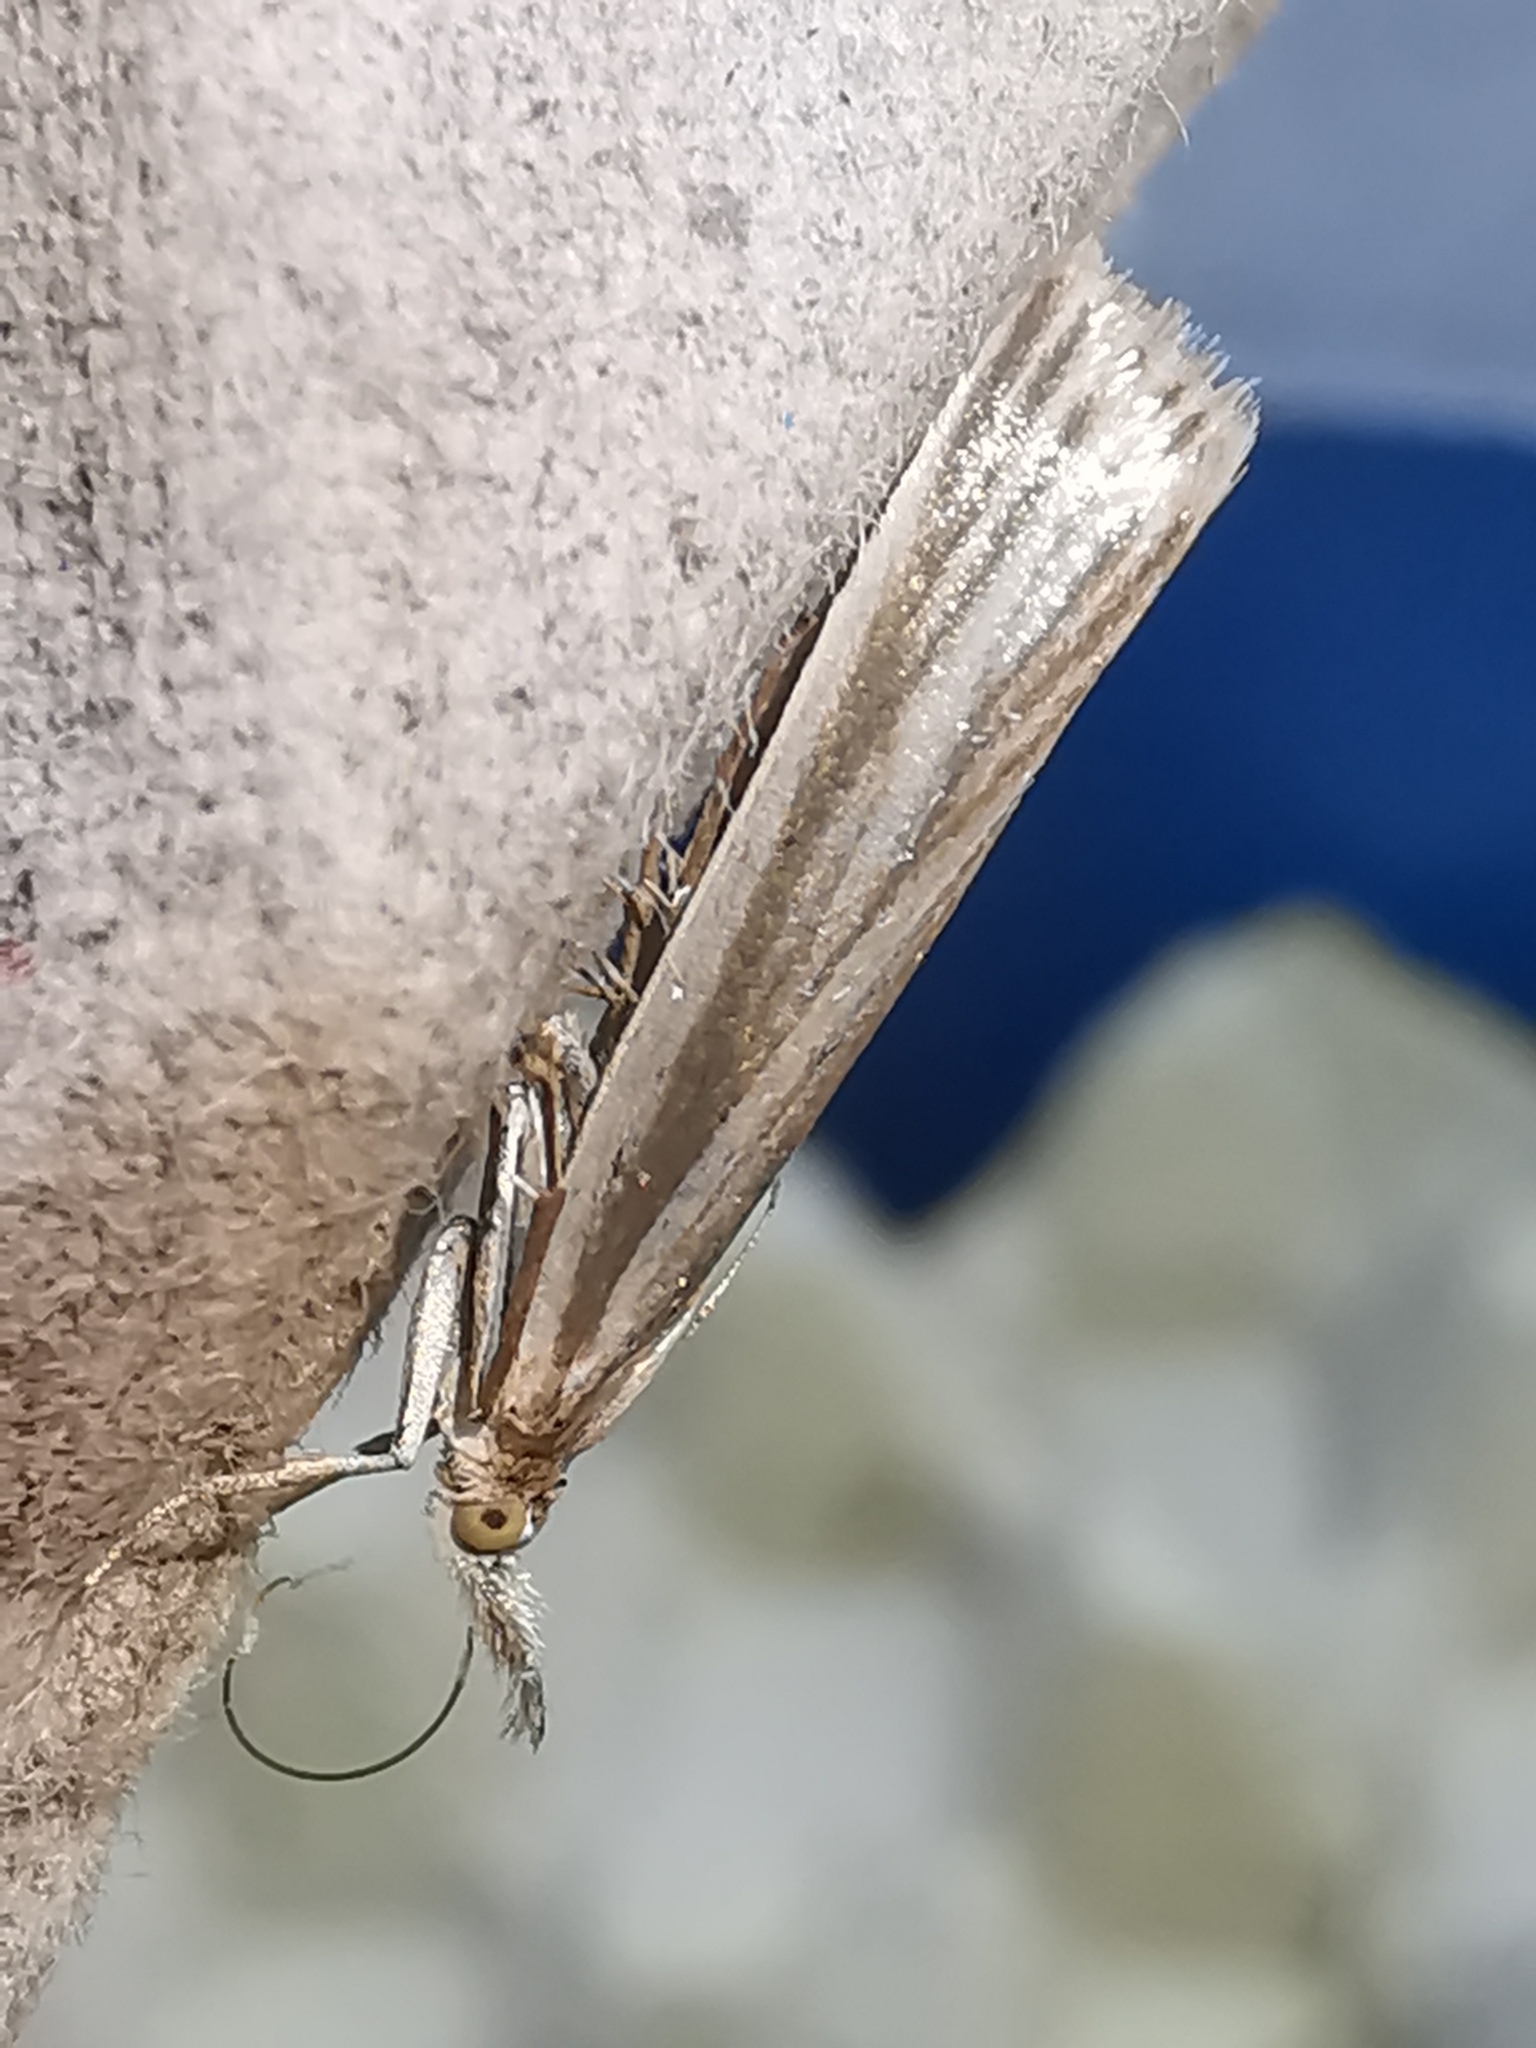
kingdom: Animalia
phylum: Arthropoda
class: Insecta
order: Lepidoptera
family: Crambidae
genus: Crambus
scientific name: Crambus perlellus
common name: Yellow satin veneer
